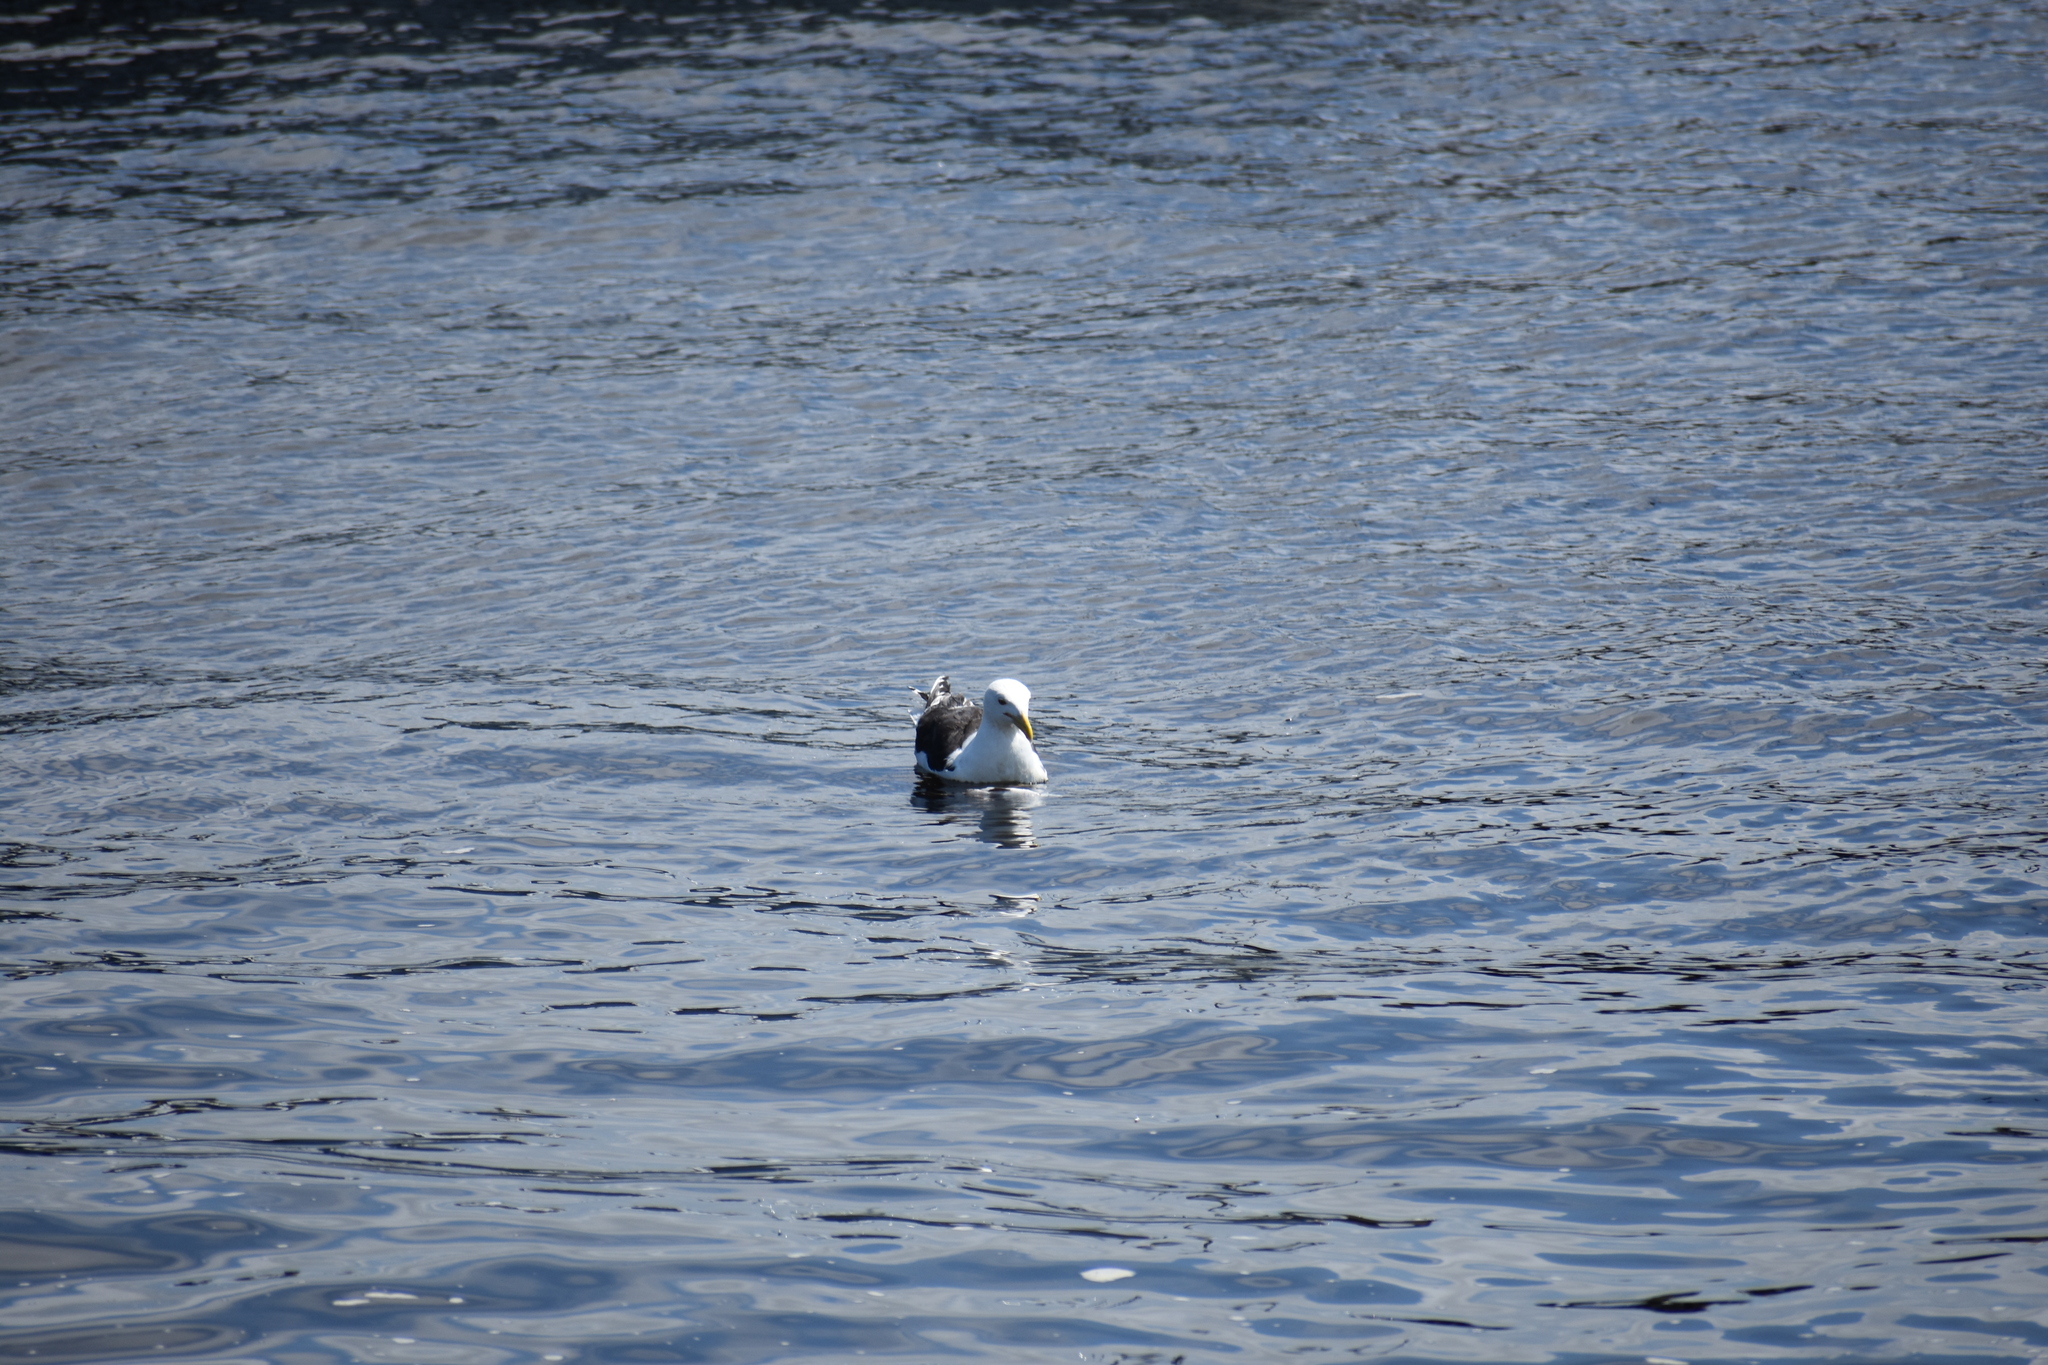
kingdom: Animalia
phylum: Chordata
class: Aves
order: Charadriiformes
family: Laridae
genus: Larus
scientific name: Larus marinus
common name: Great black-backed gull
